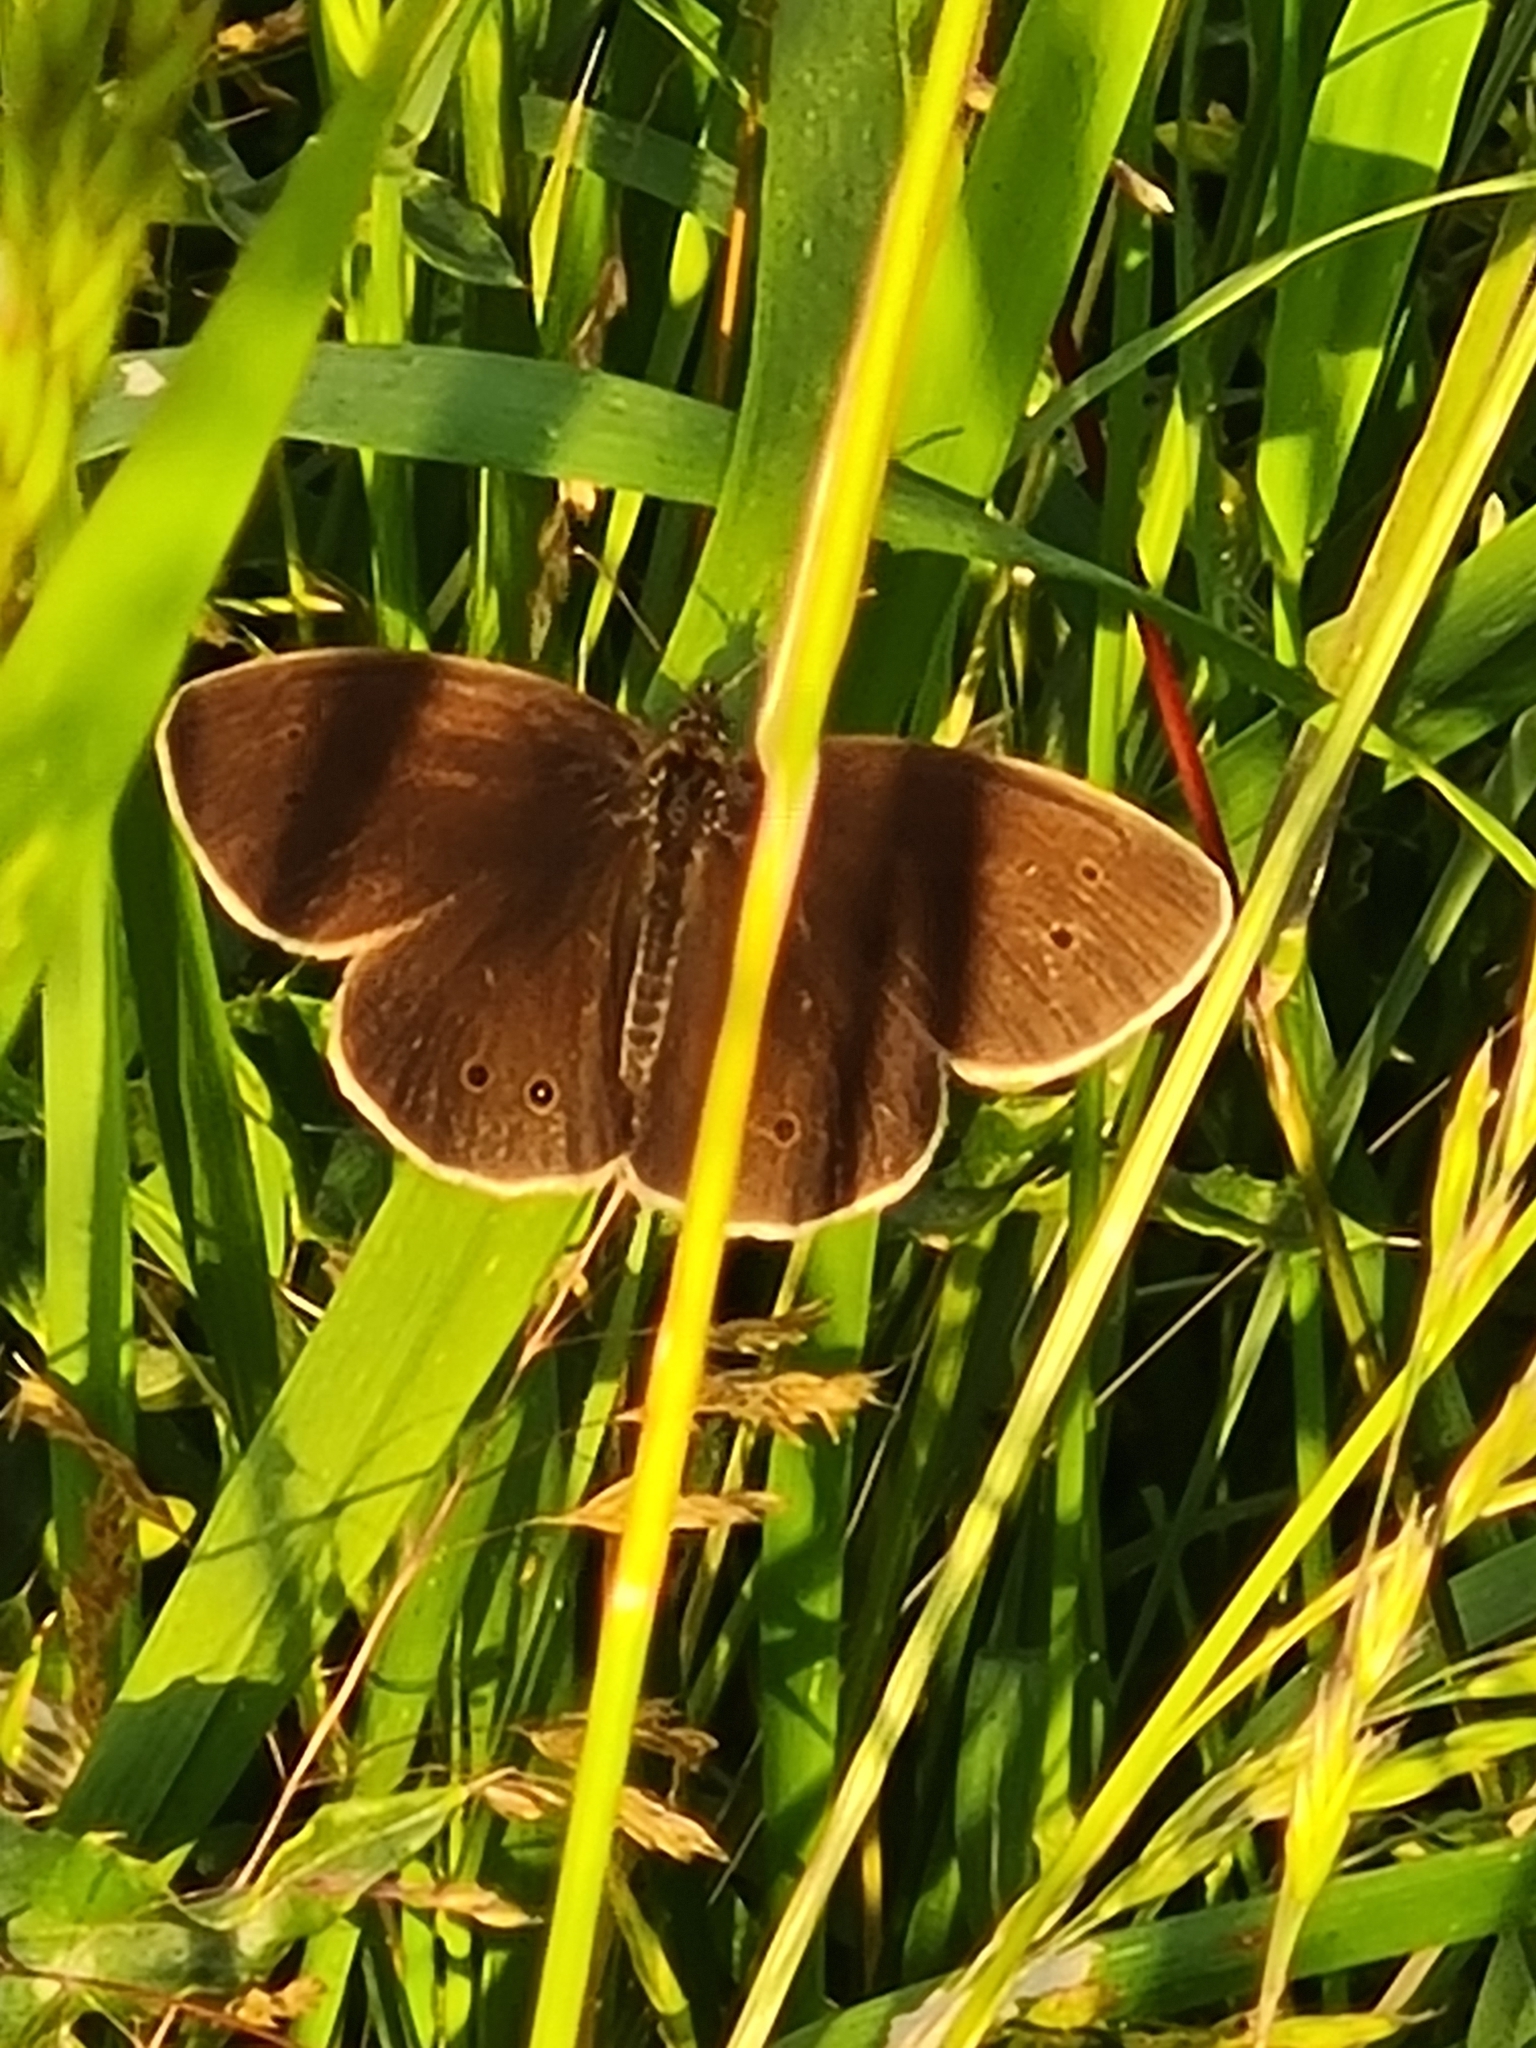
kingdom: Animalia
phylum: Arthropoda
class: Insecta
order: Lepidoptera
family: Nymphalidae
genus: Aphantopus
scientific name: Aphantopus hyperantus
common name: Ringlet
